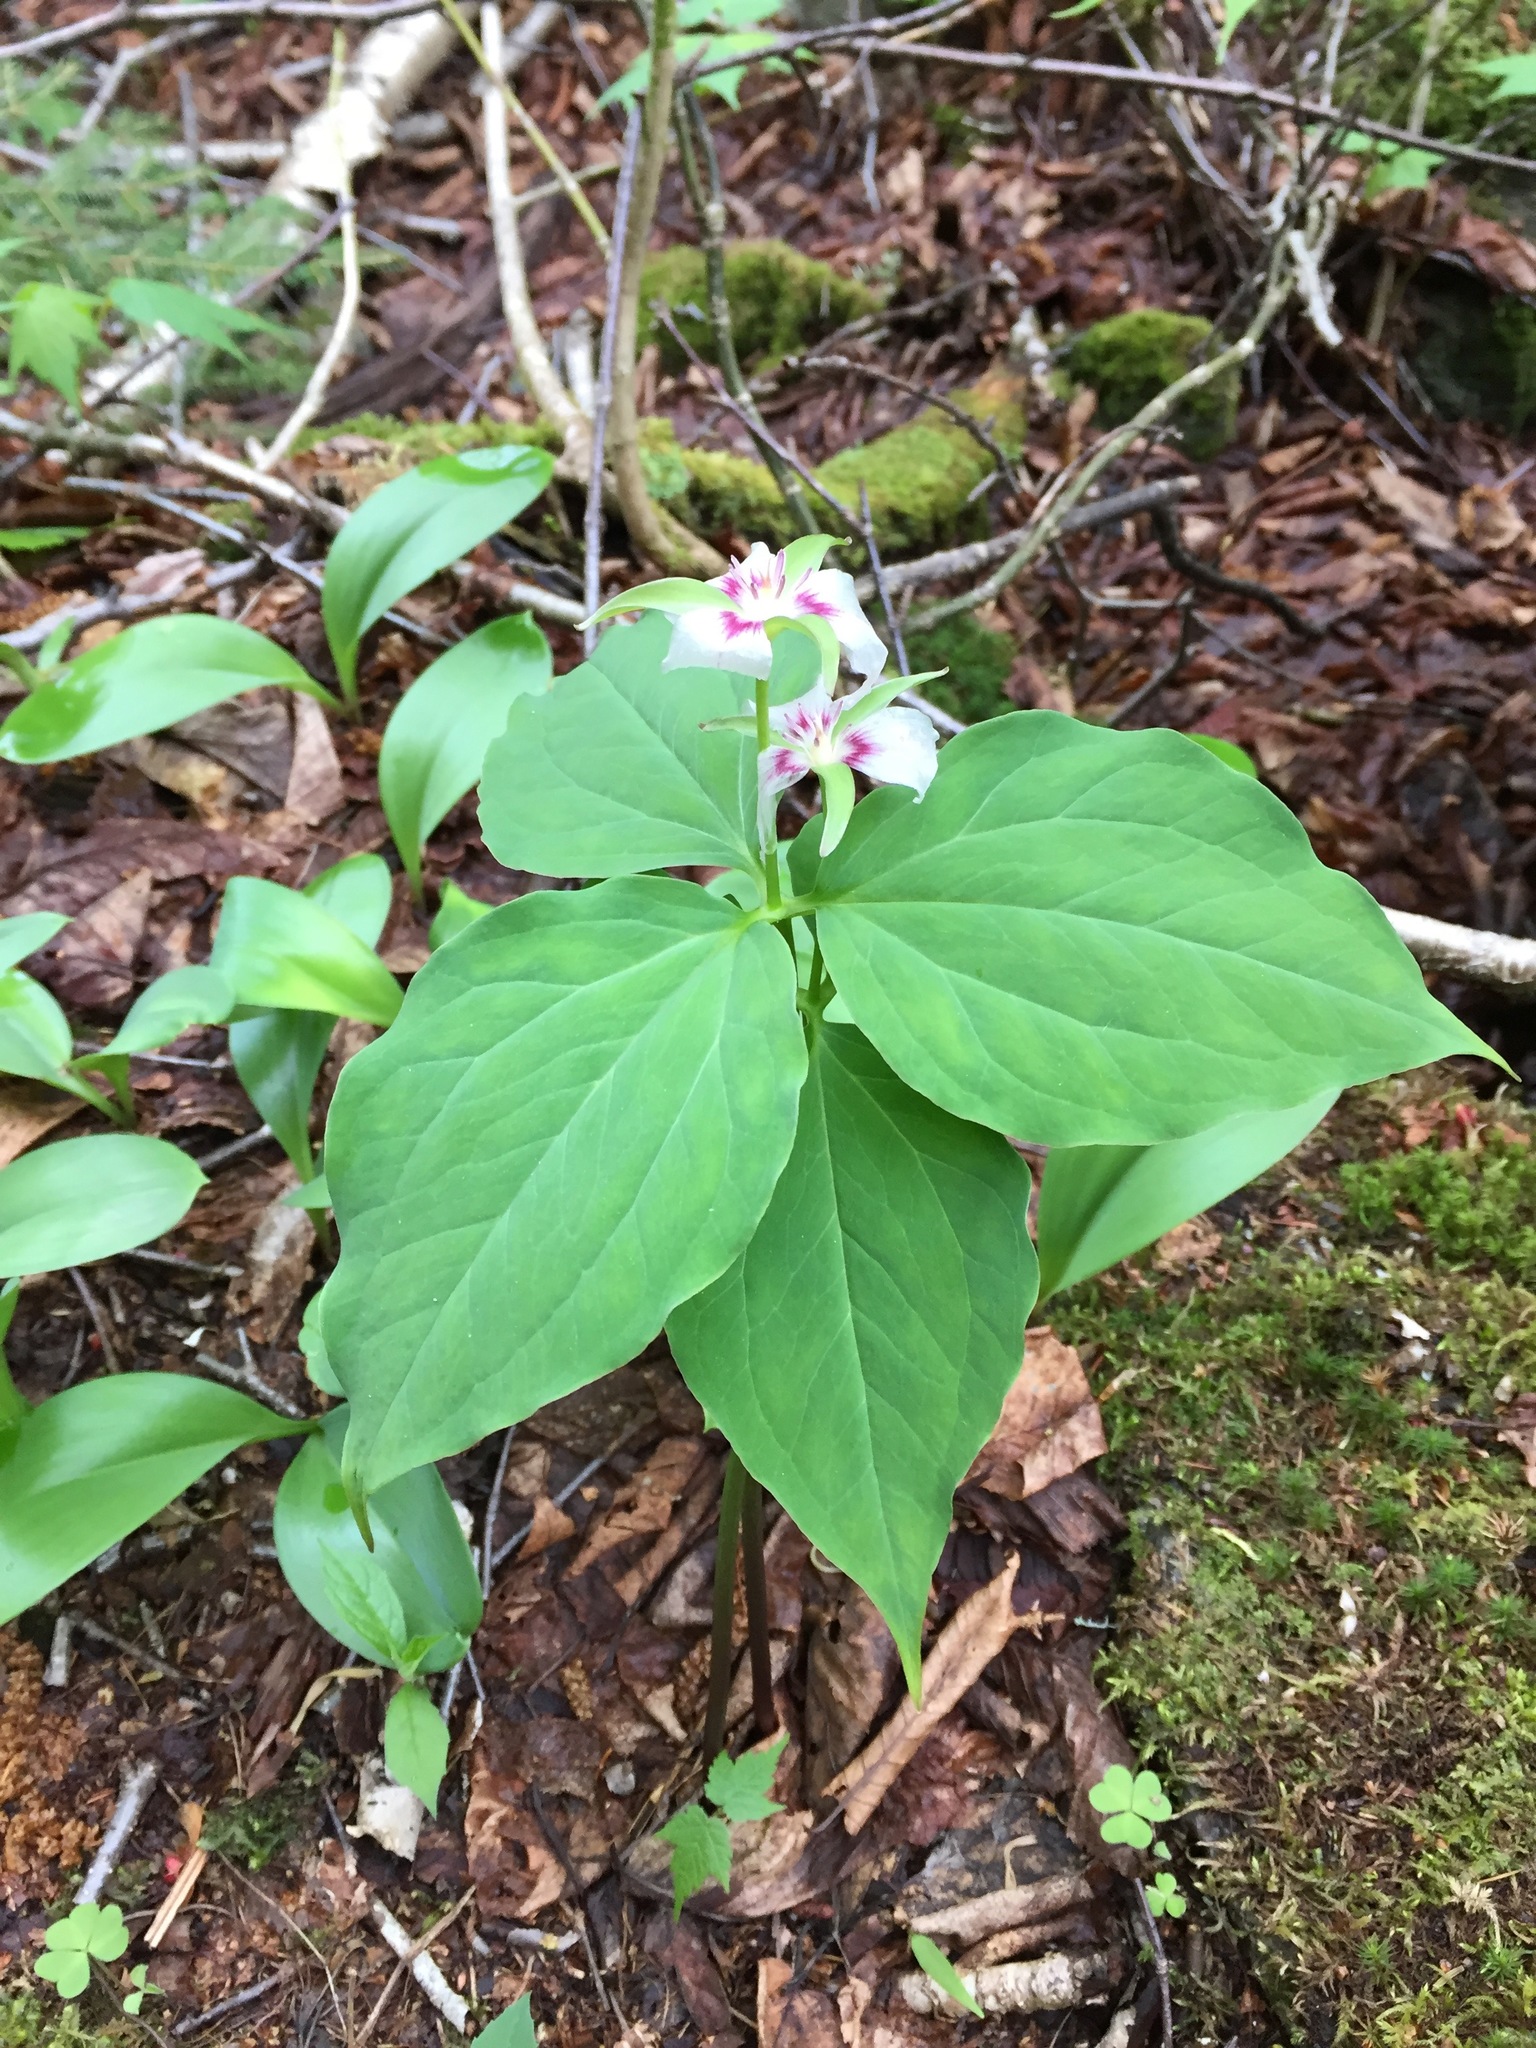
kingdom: Plantae
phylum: Tracheophyta
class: Liliopsida
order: Liliales
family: Melanthiaceae
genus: Trillium
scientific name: Trillium undulatum
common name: Paint trillium
